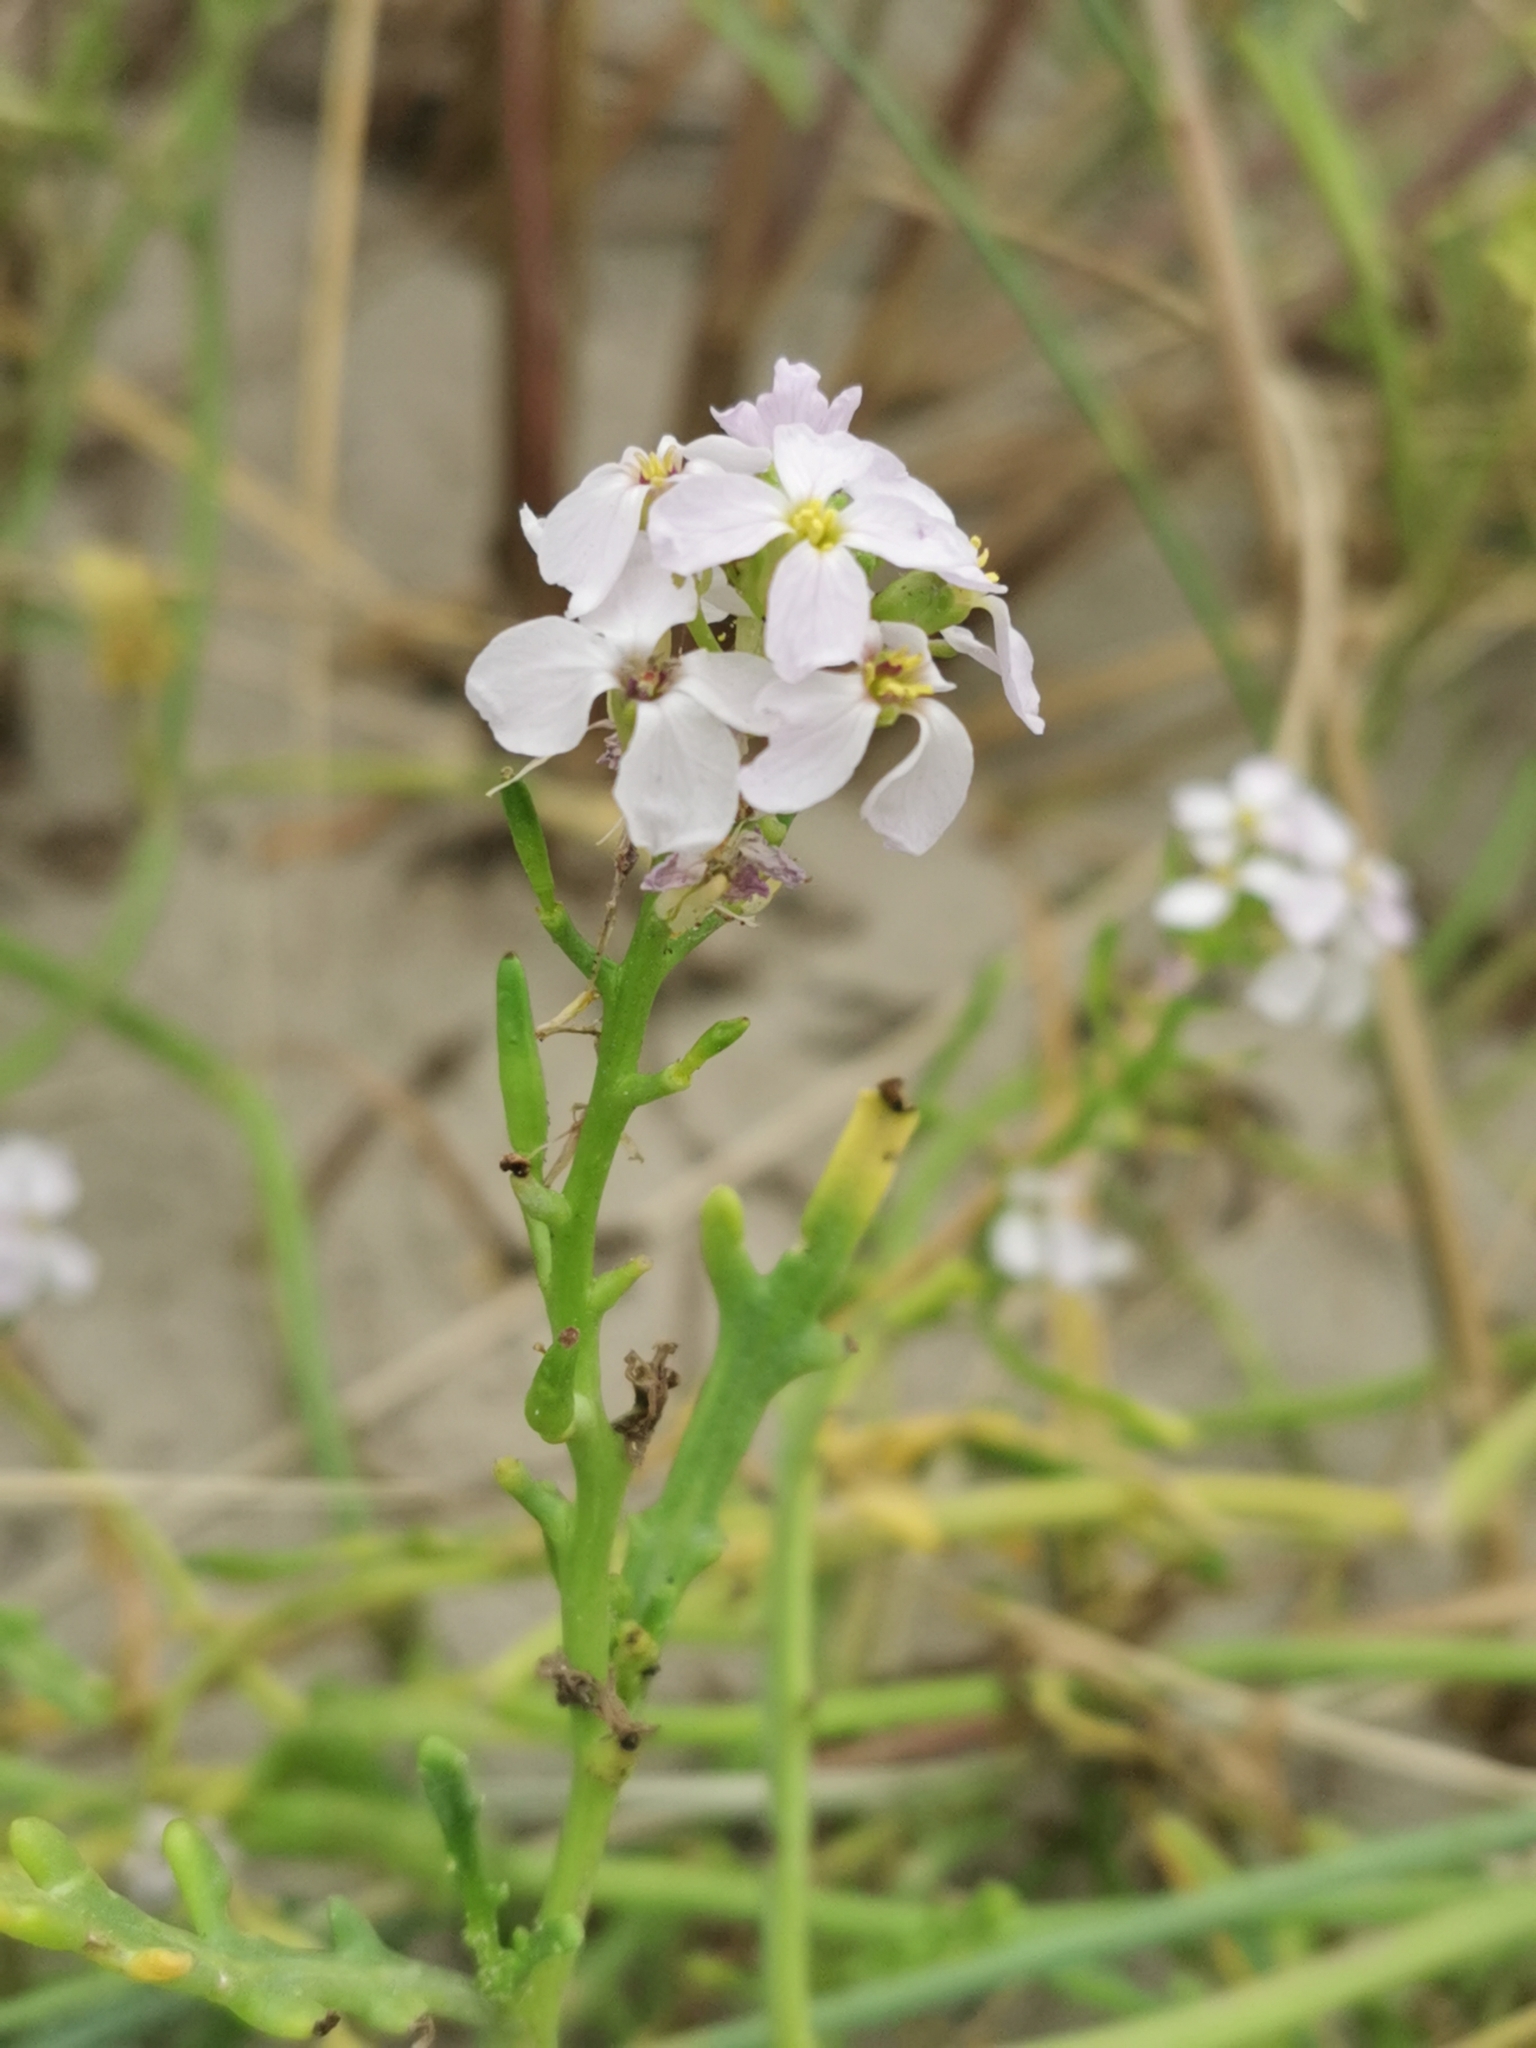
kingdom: Plantae
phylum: Tracheophyta
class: Magnoliopsida
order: Brassicales
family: Brassicaceae
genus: Cakile
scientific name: Cakile maritima
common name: Sea rocket
